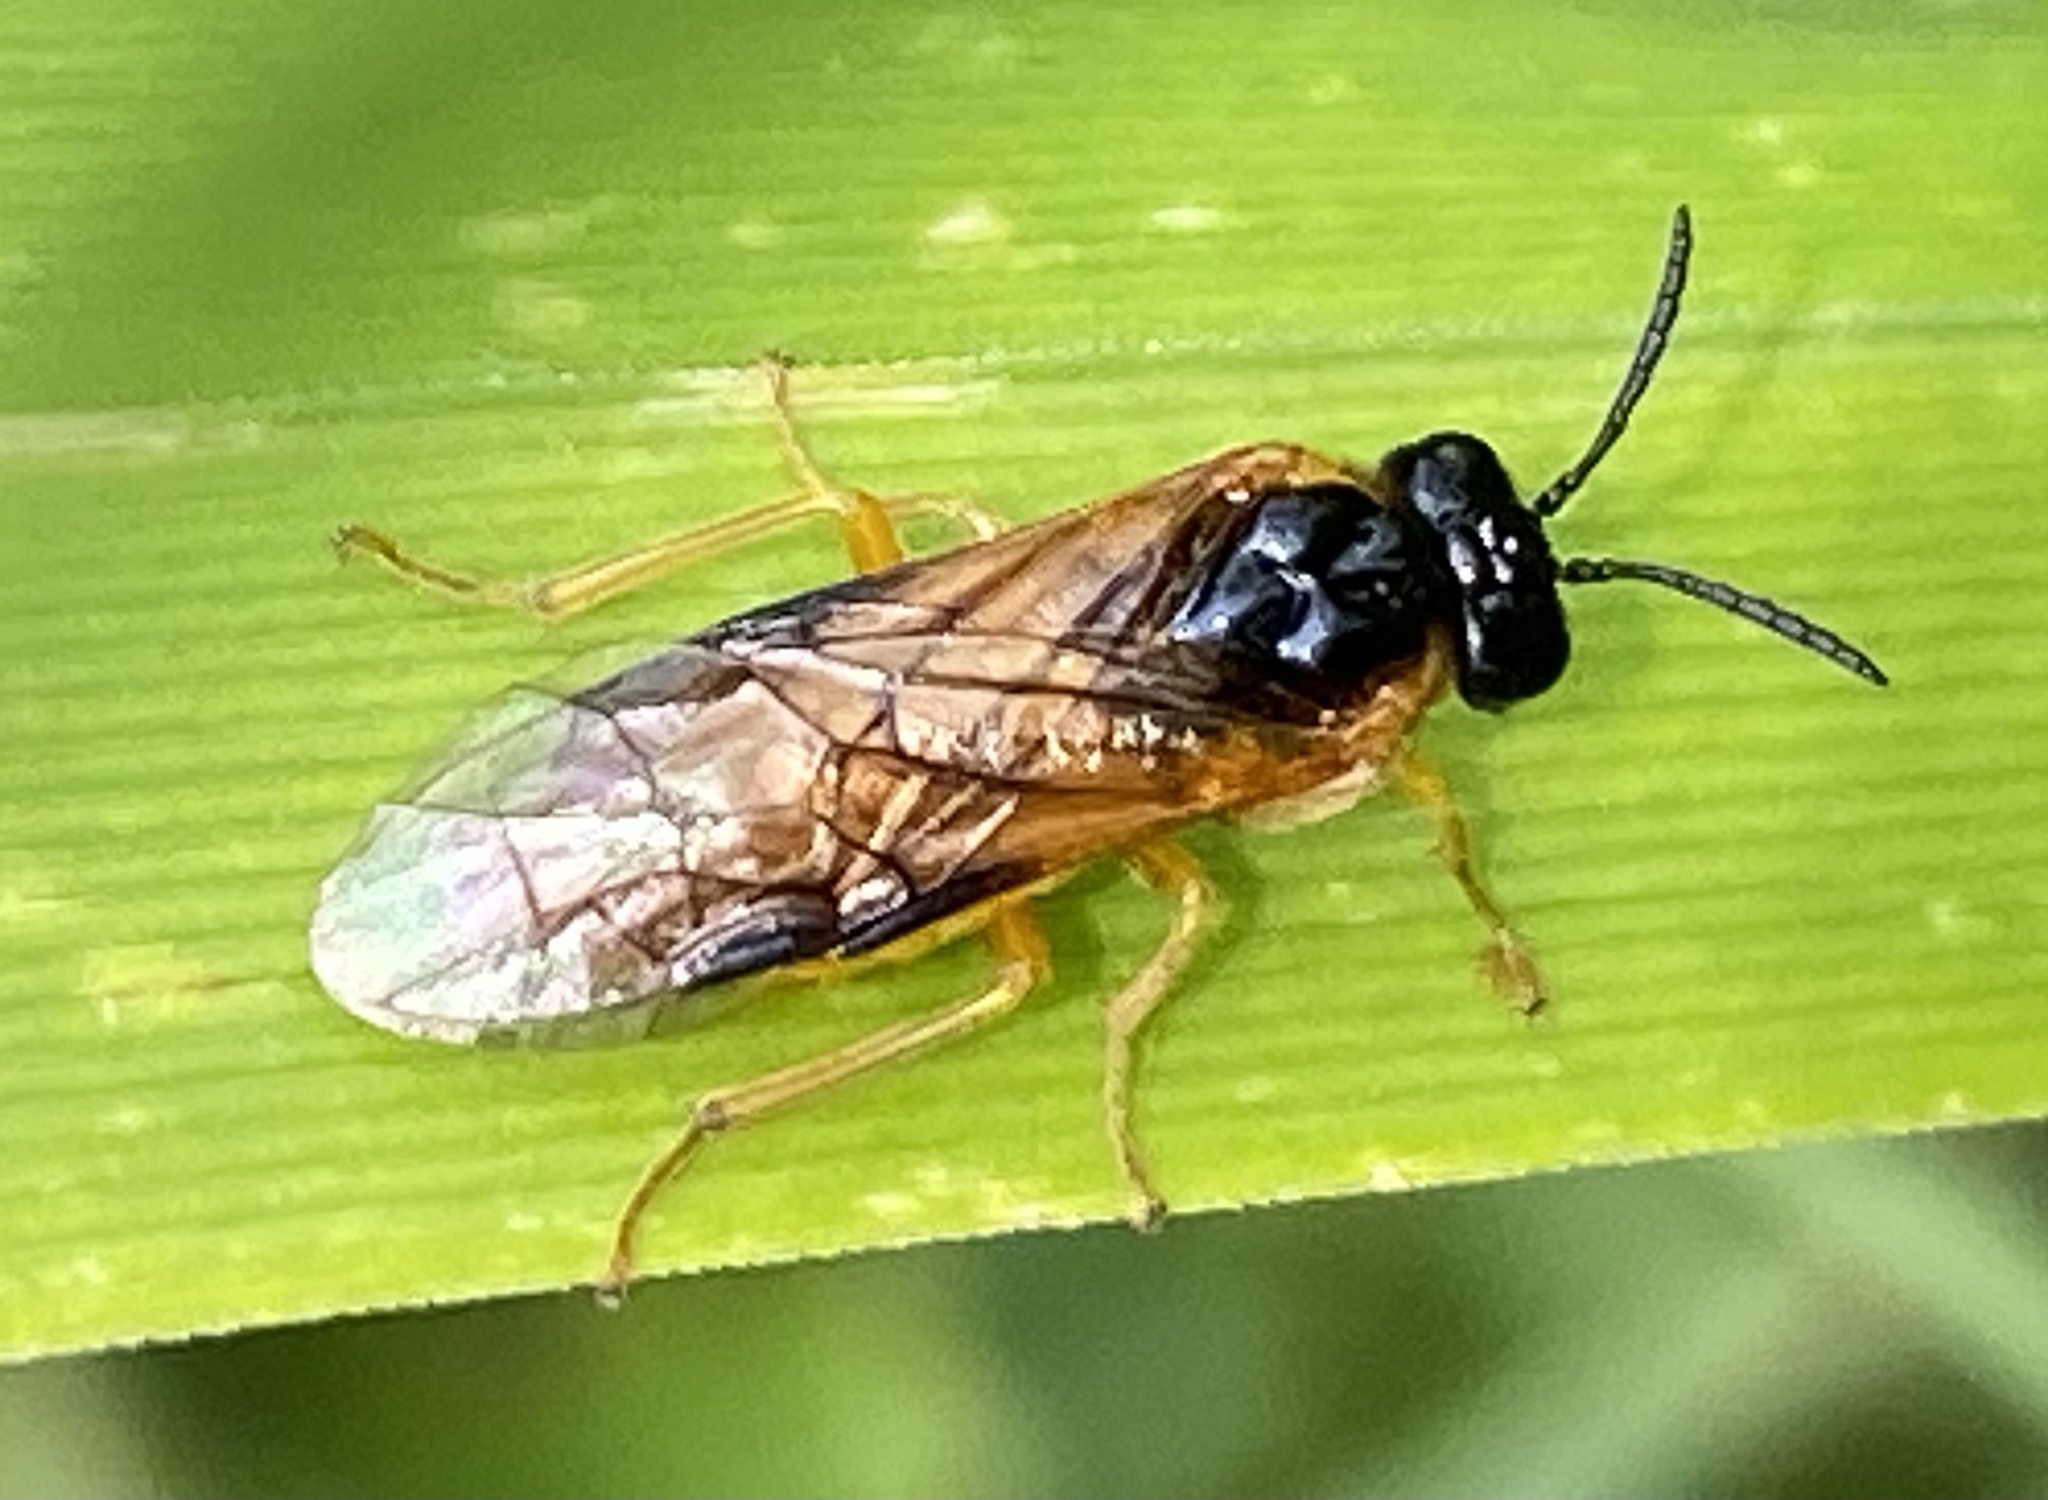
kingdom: Animalia
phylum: Arthropoda
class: Insecta
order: Hymenoptera
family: Tenthredinidae
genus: Selandria
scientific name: Selandria serva
